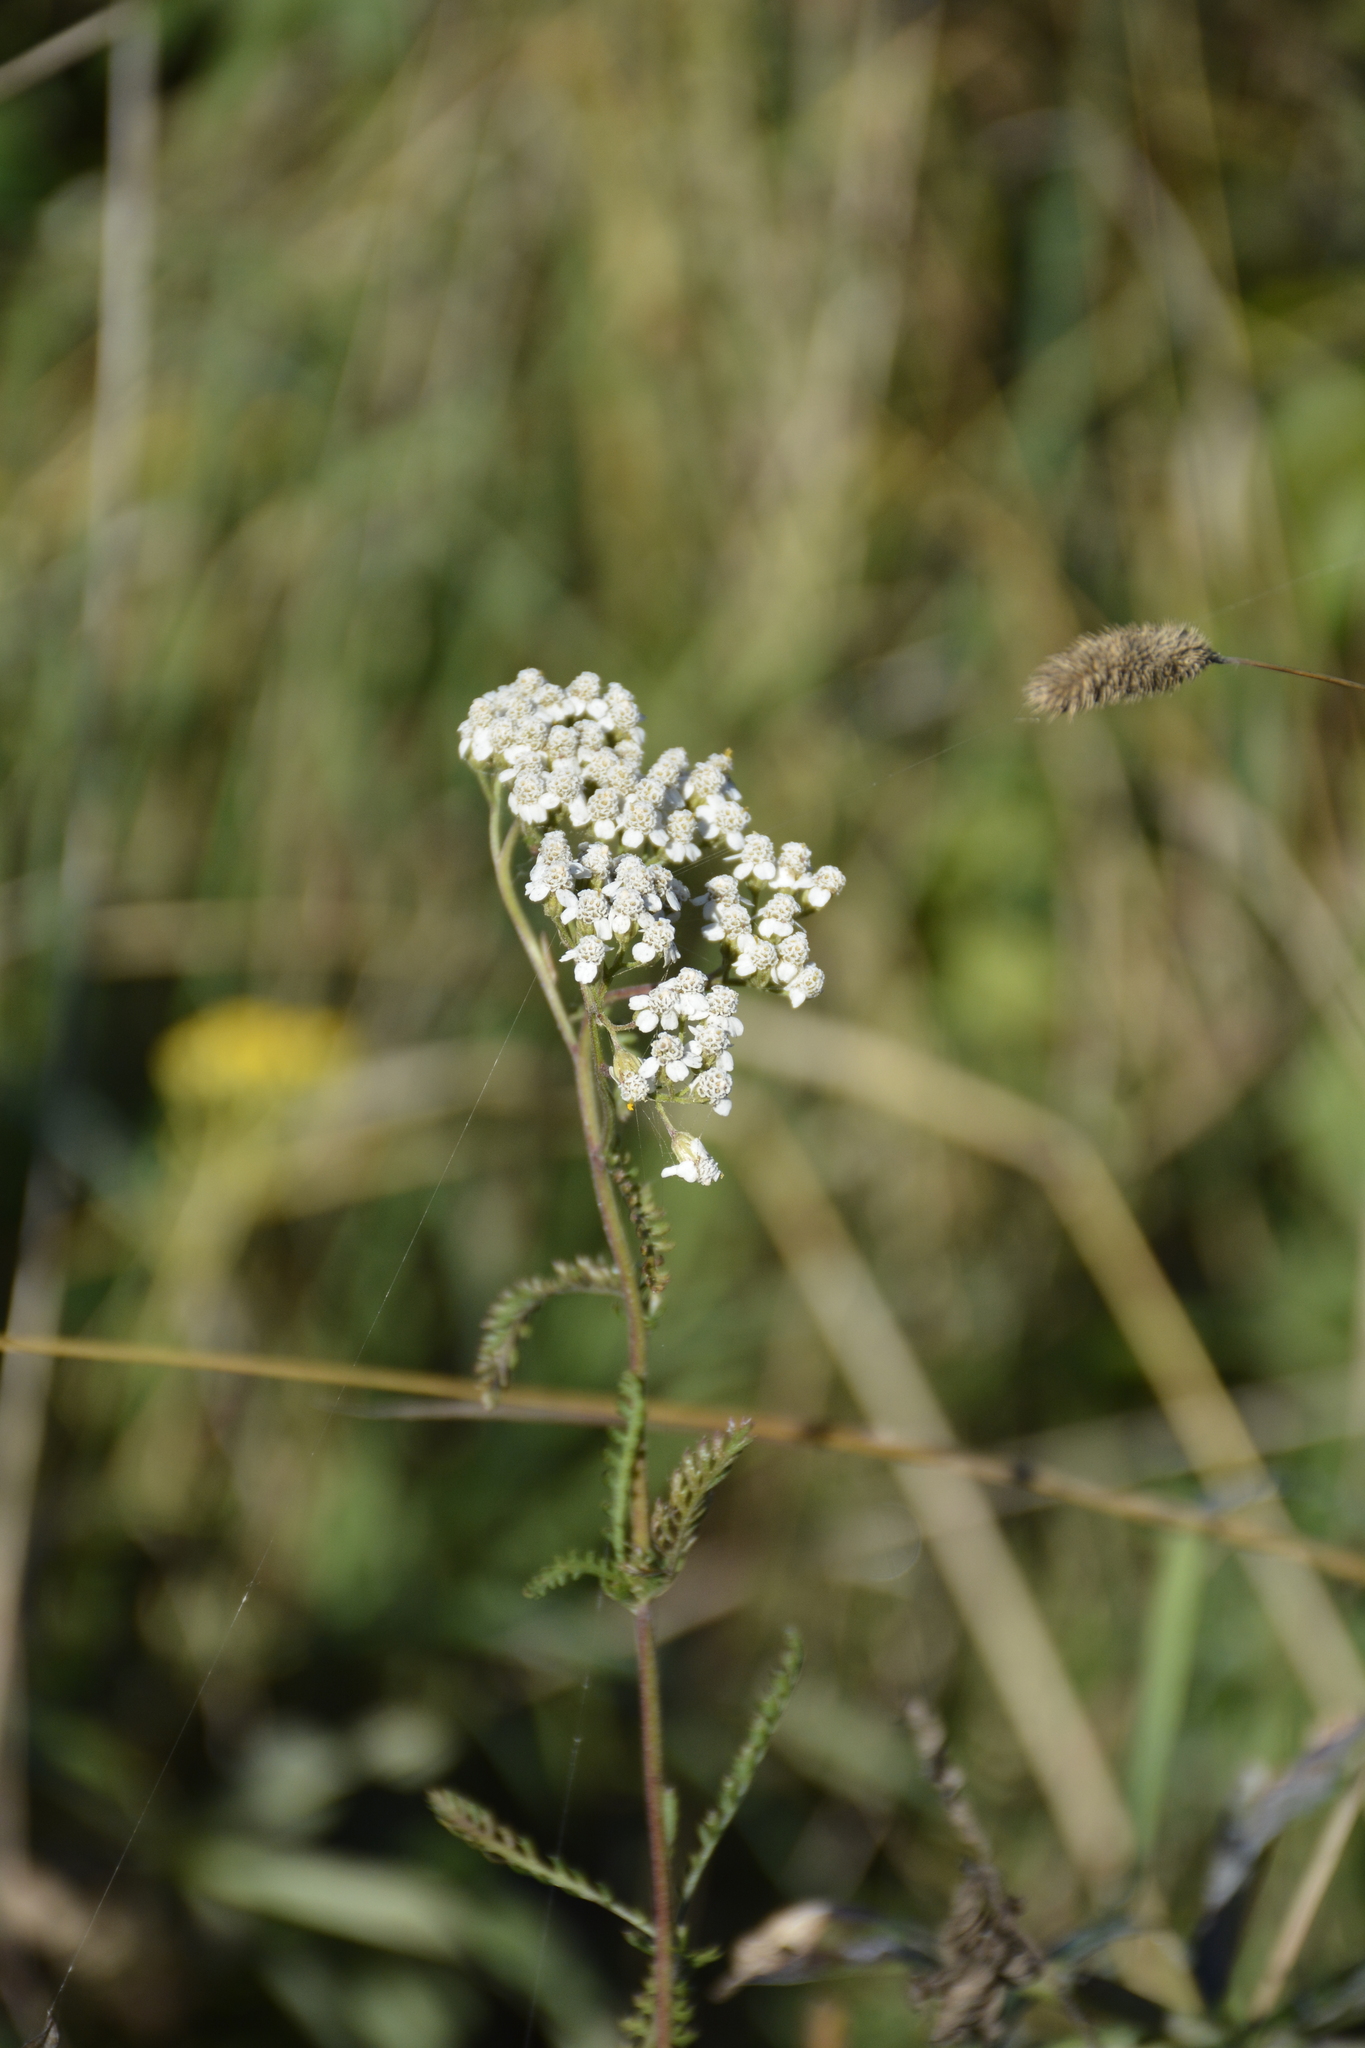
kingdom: Plantae
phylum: Tracheophyta
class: Magnoliopsida
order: Asterales
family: Asteraceae
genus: Achillea
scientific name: Achillea millefolium
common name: Yarrow
